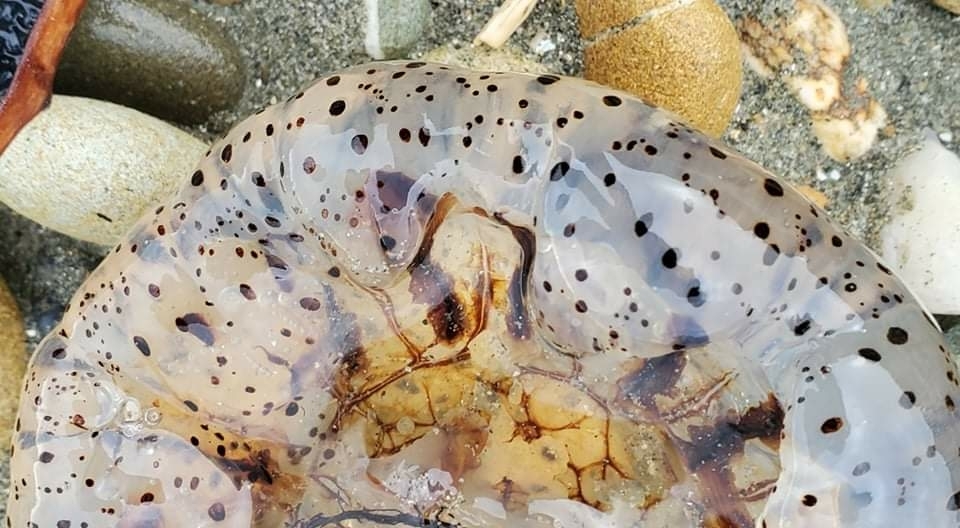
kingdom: Animalia
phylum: Cnidaria
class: Scyphozoa
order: Semaeostomeae
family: Cyaneidae
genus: Desmonema
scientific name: Desmonema gaudichaudi
